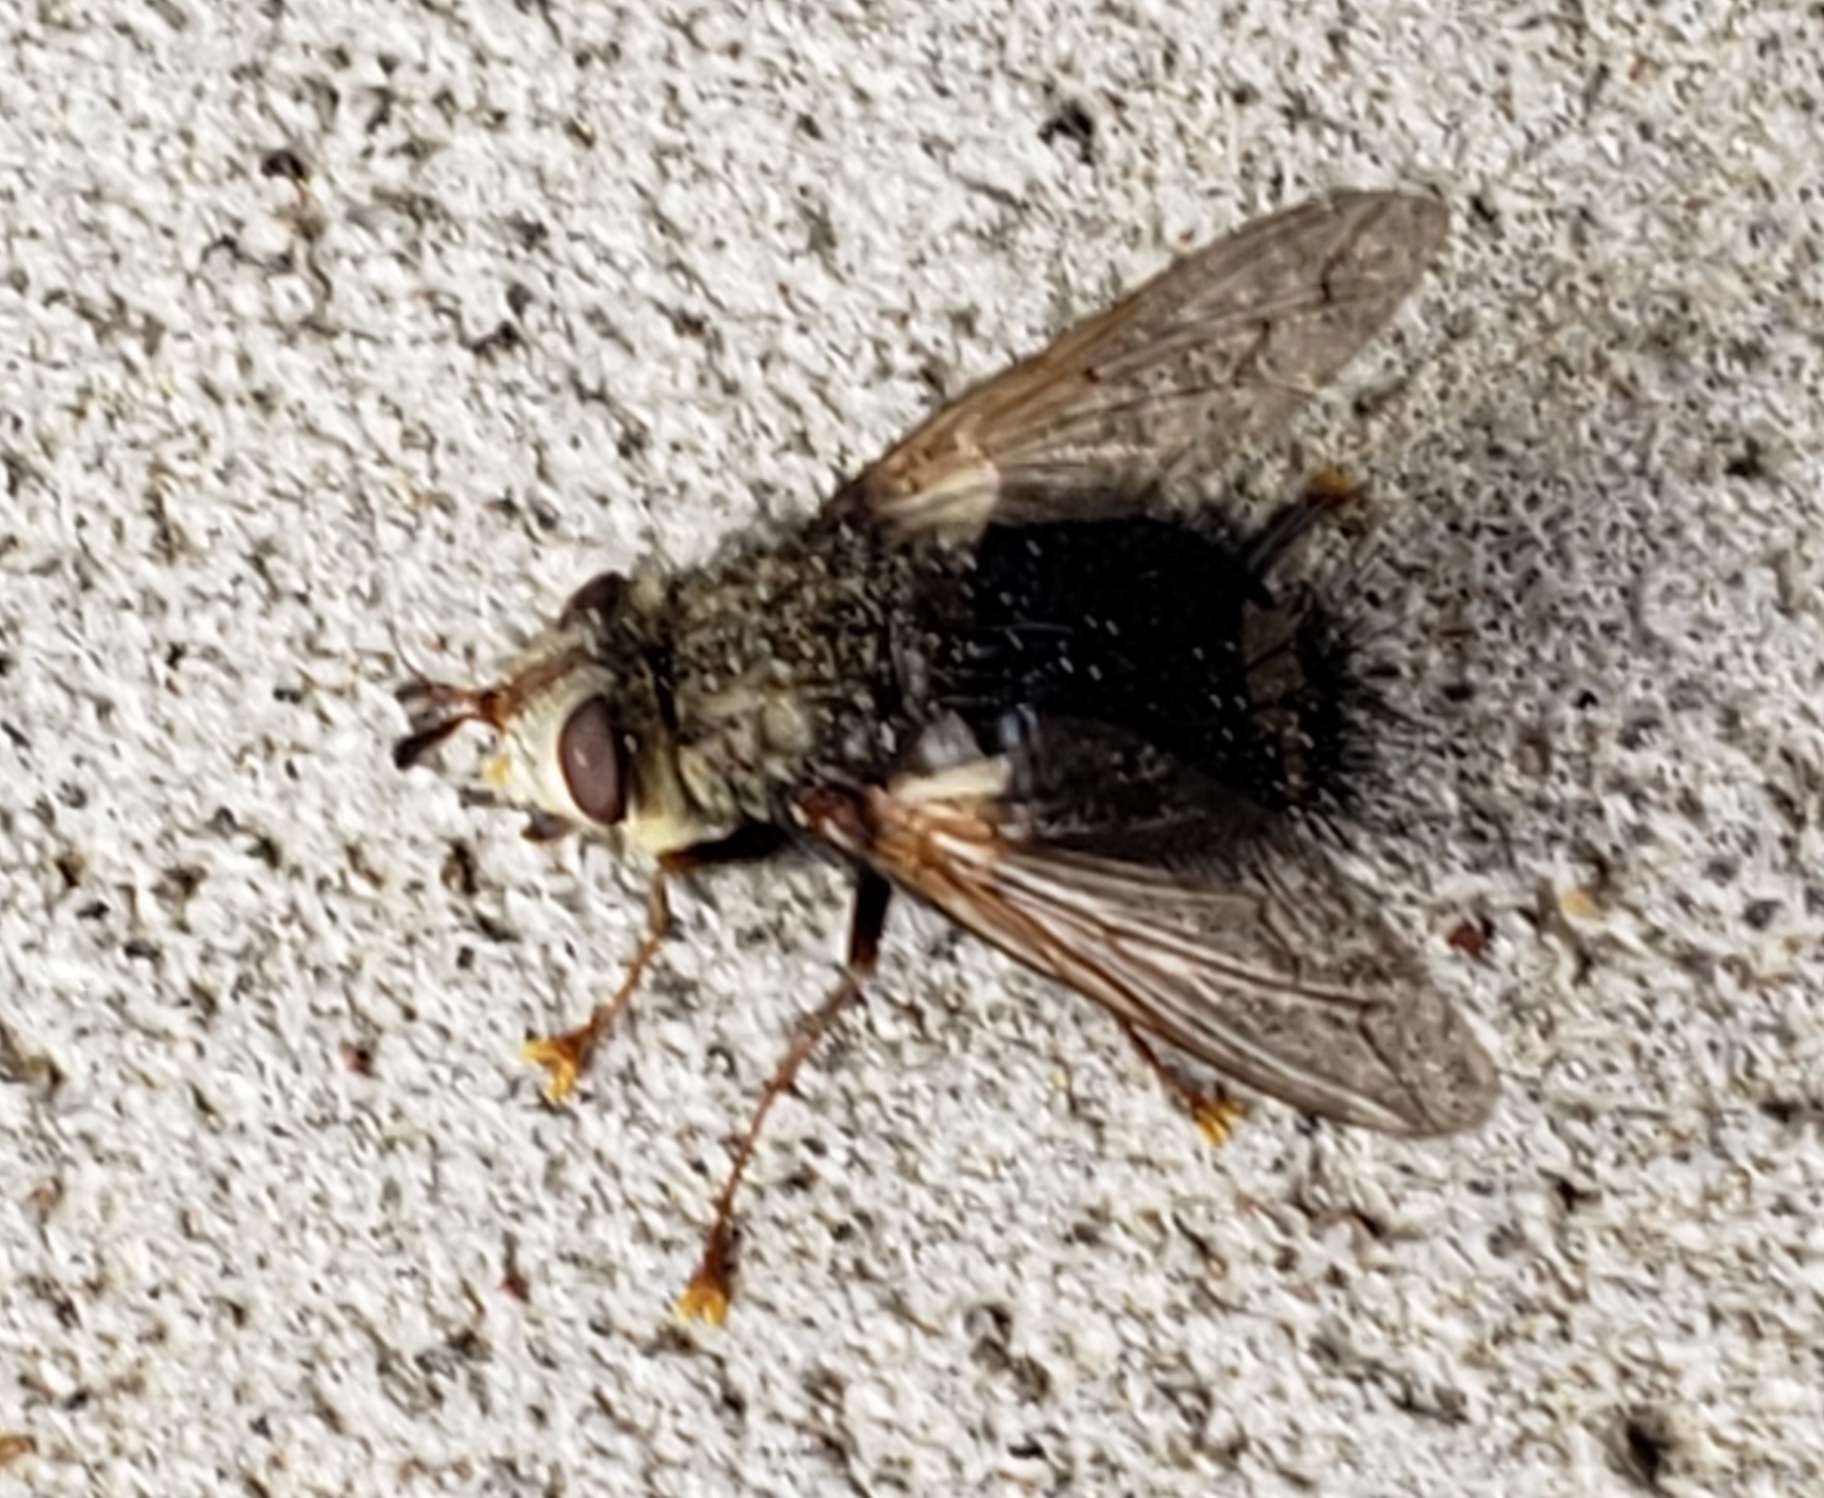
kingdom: Animalia
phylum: Arthropoda
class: Insecta
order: Diptera
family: Tachinidae
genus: Epalpus
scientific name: Epalpus signifer
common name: Early tachinid fly
